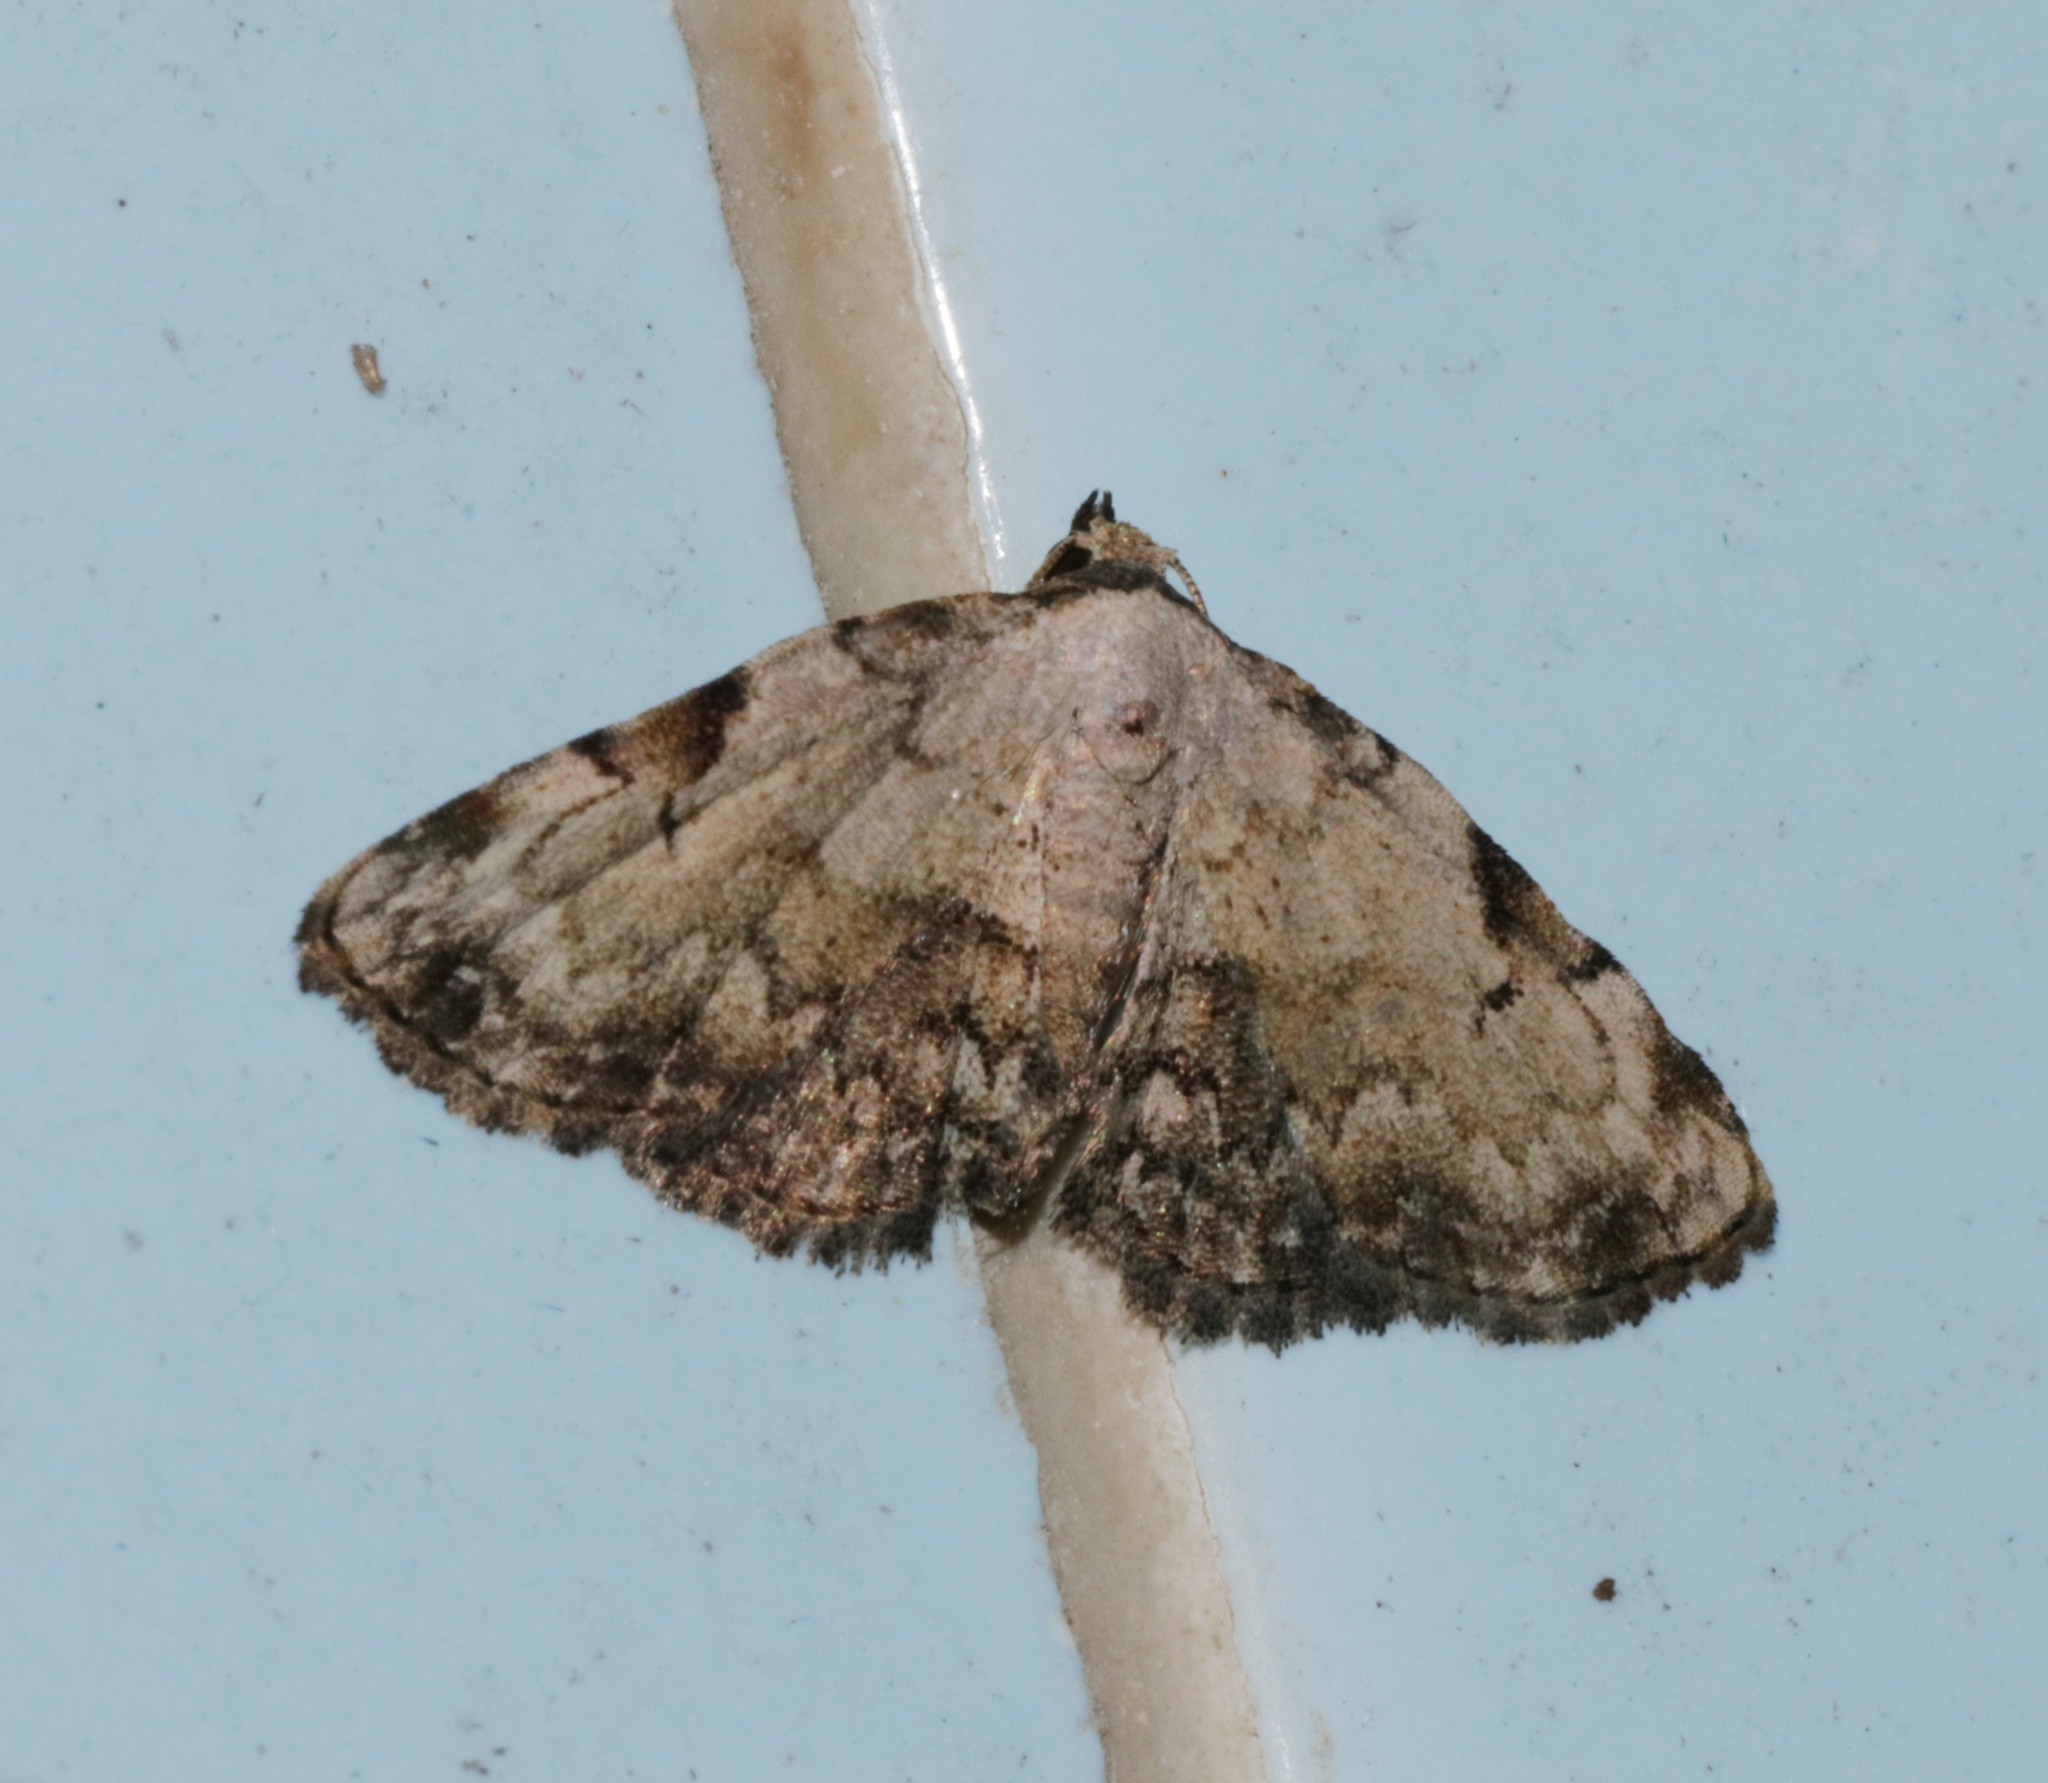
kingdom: Animalia
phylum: Arthropoda
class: Insecta
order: Lepidoptera
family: Noctuidae
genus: Mataeomera
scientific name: Mataeomera semialba
